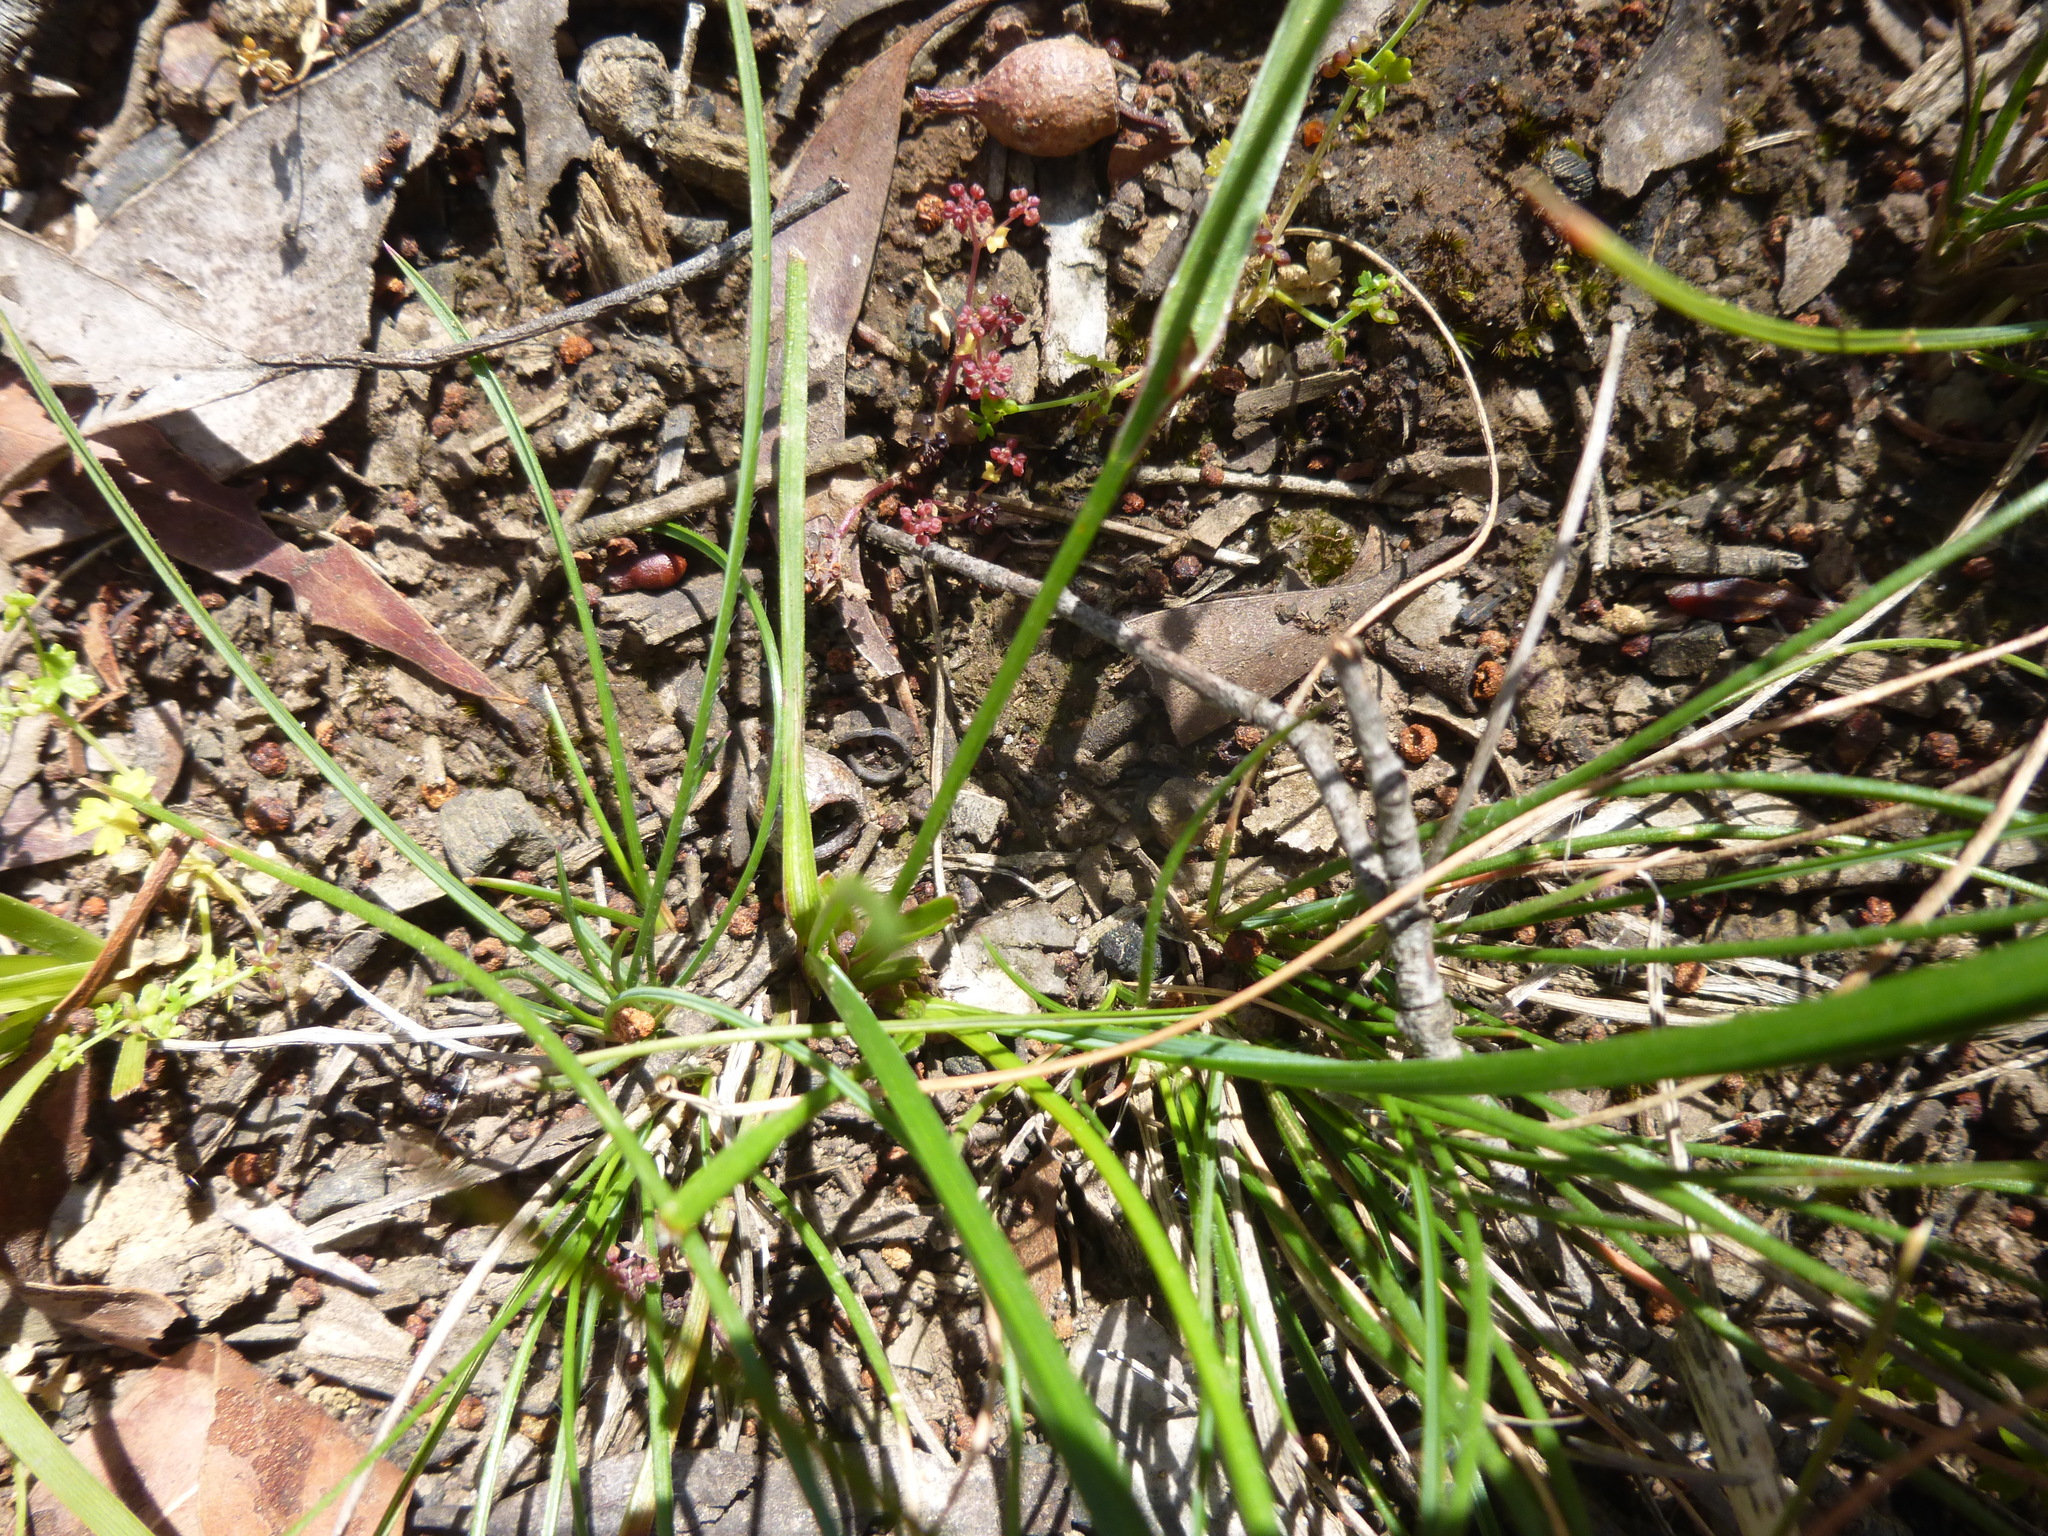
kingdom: Plantae
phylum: Tracheophyta
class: Liliopsida
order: Asparagales
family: Asphodelaceae
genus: Caesia
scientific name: Caesia parviflora
